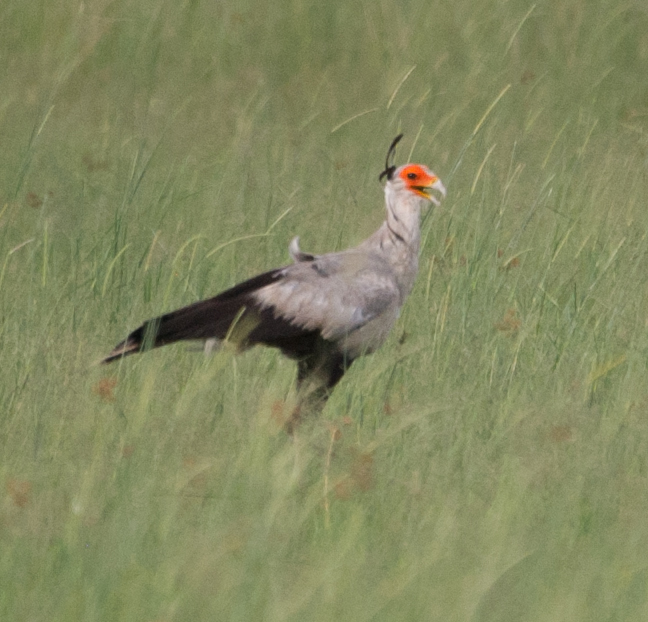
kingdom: Animalia
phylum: Chordata
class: Aves
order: Accipitriformes
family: Sagittariidae
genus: Sagittarius
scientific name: Sagittarius serpentarius
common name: Secretarybird
